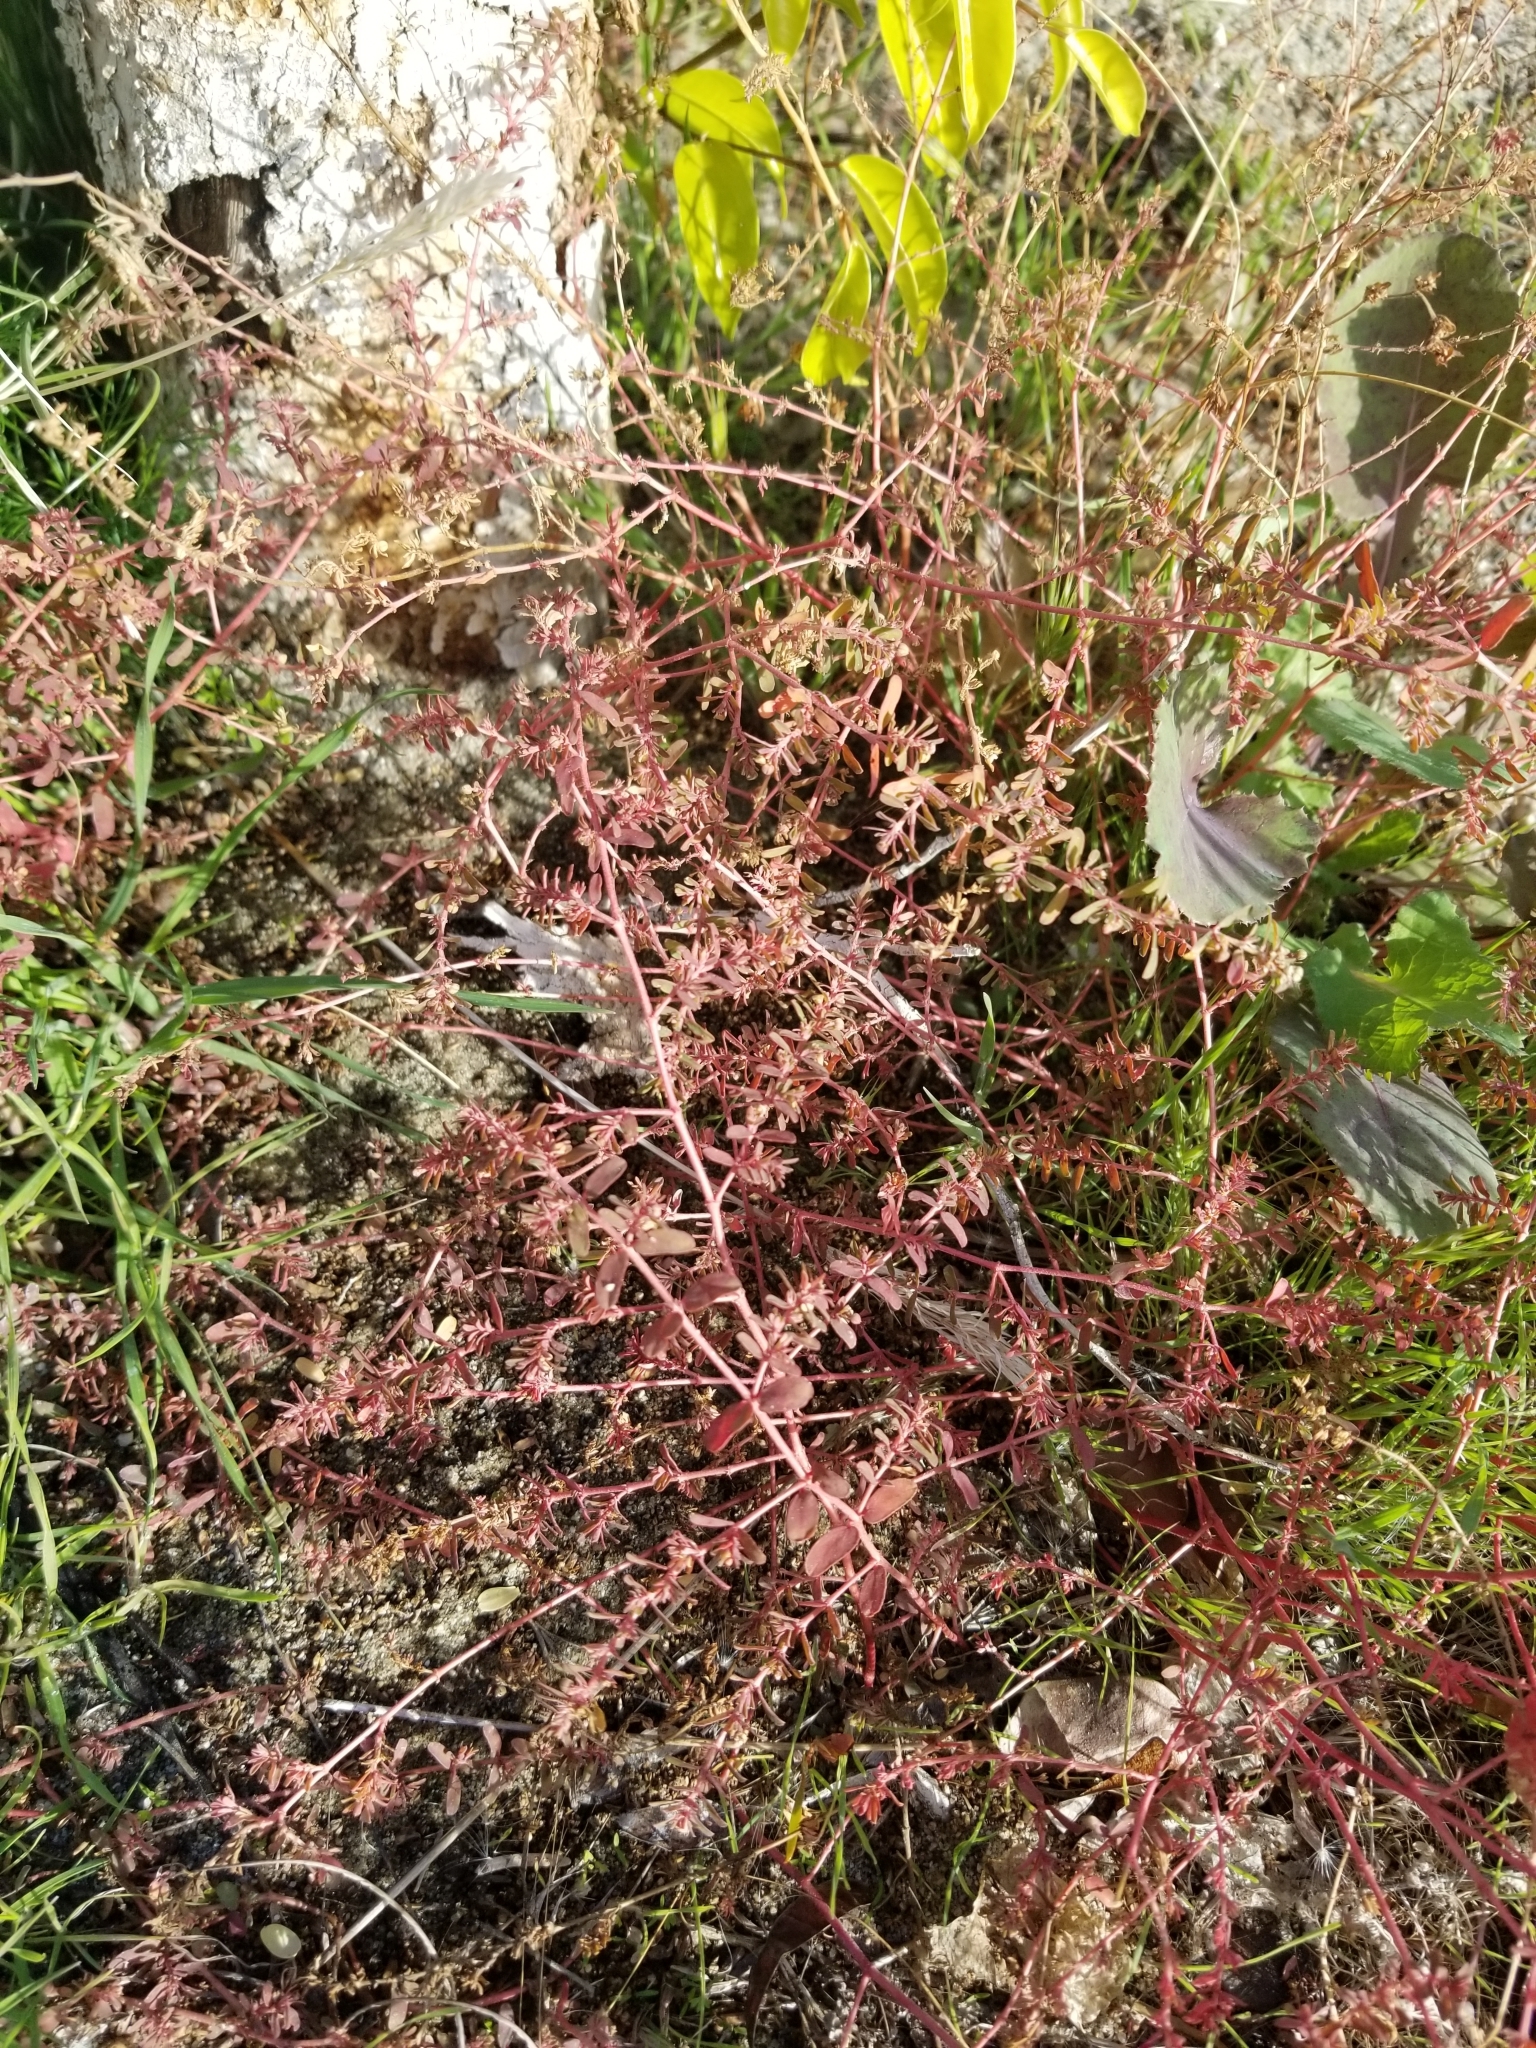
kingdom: Plantae
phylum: Tracheophyta
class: Magnoliopsida
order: Malpighiales
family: Euphorbiaceae
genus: Euphorbia
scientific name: Euphorbia maculata
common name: Spotted spurge
